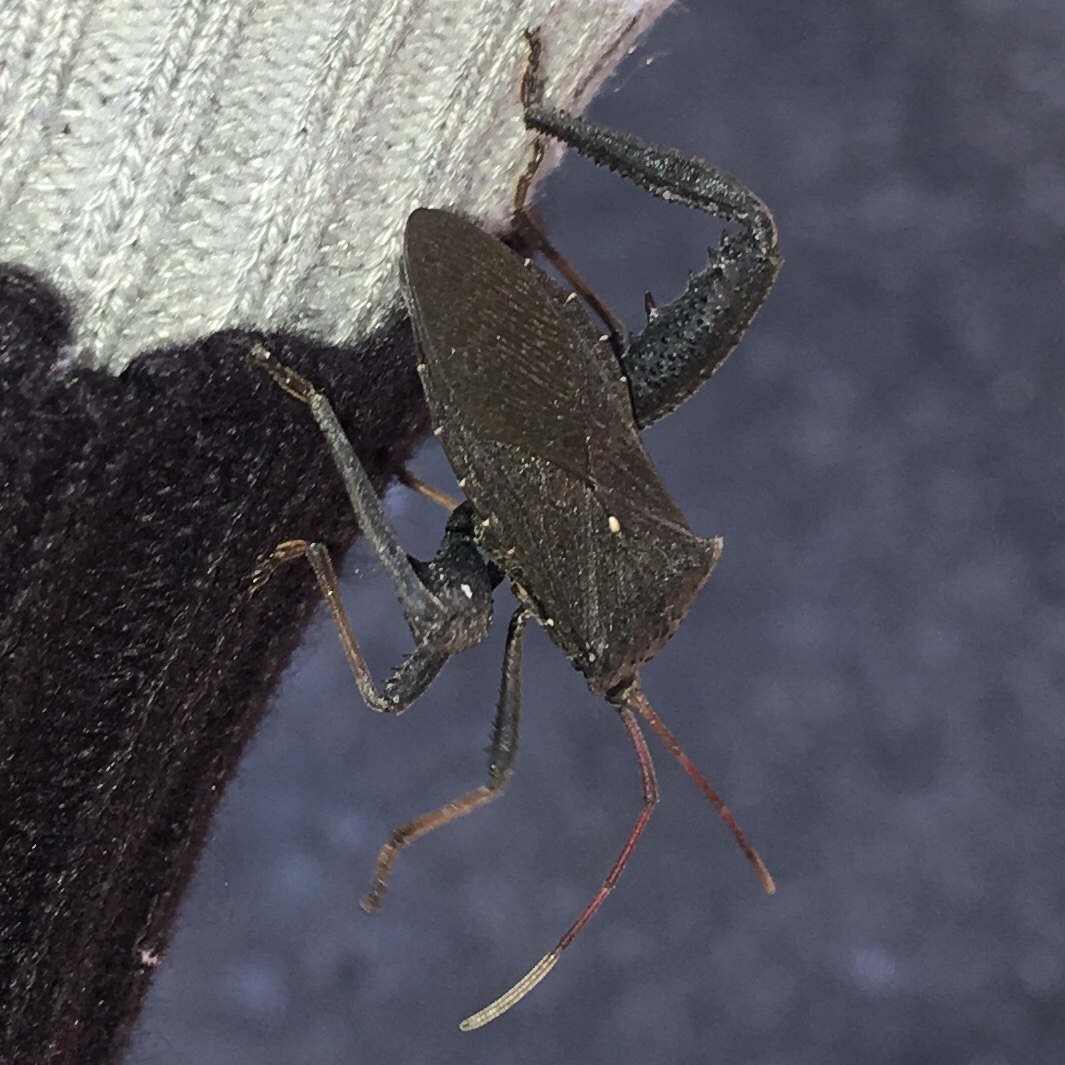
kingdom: Animalia
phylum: Arthropoda
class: Insecta
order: Hemiptera
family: Coreidae
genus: Acanthocephala
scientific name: Acanthocephala femorata
